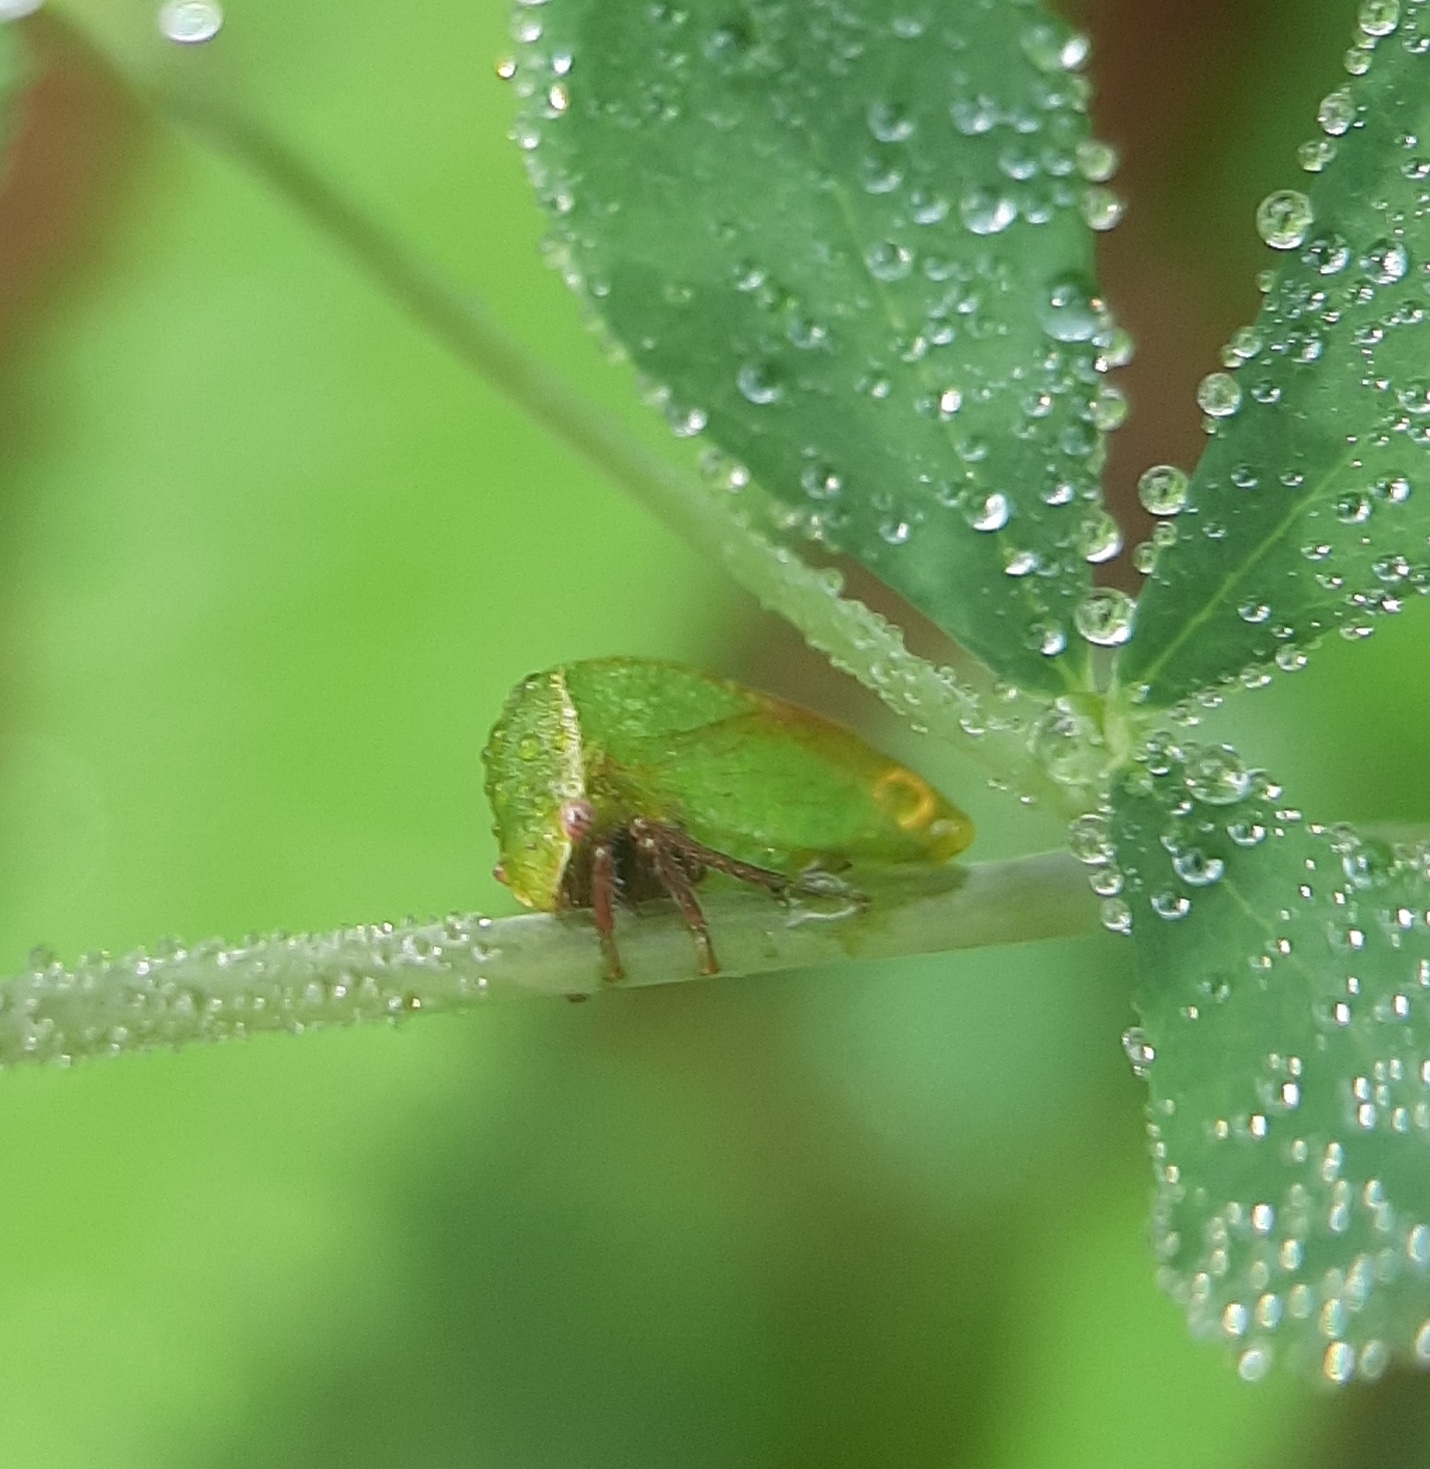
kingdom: Animalia
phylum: Arthropoda
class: Insecta
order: Hemiptera
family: Membracidae
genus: Stictocephala
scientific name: Stictocephala lutea
